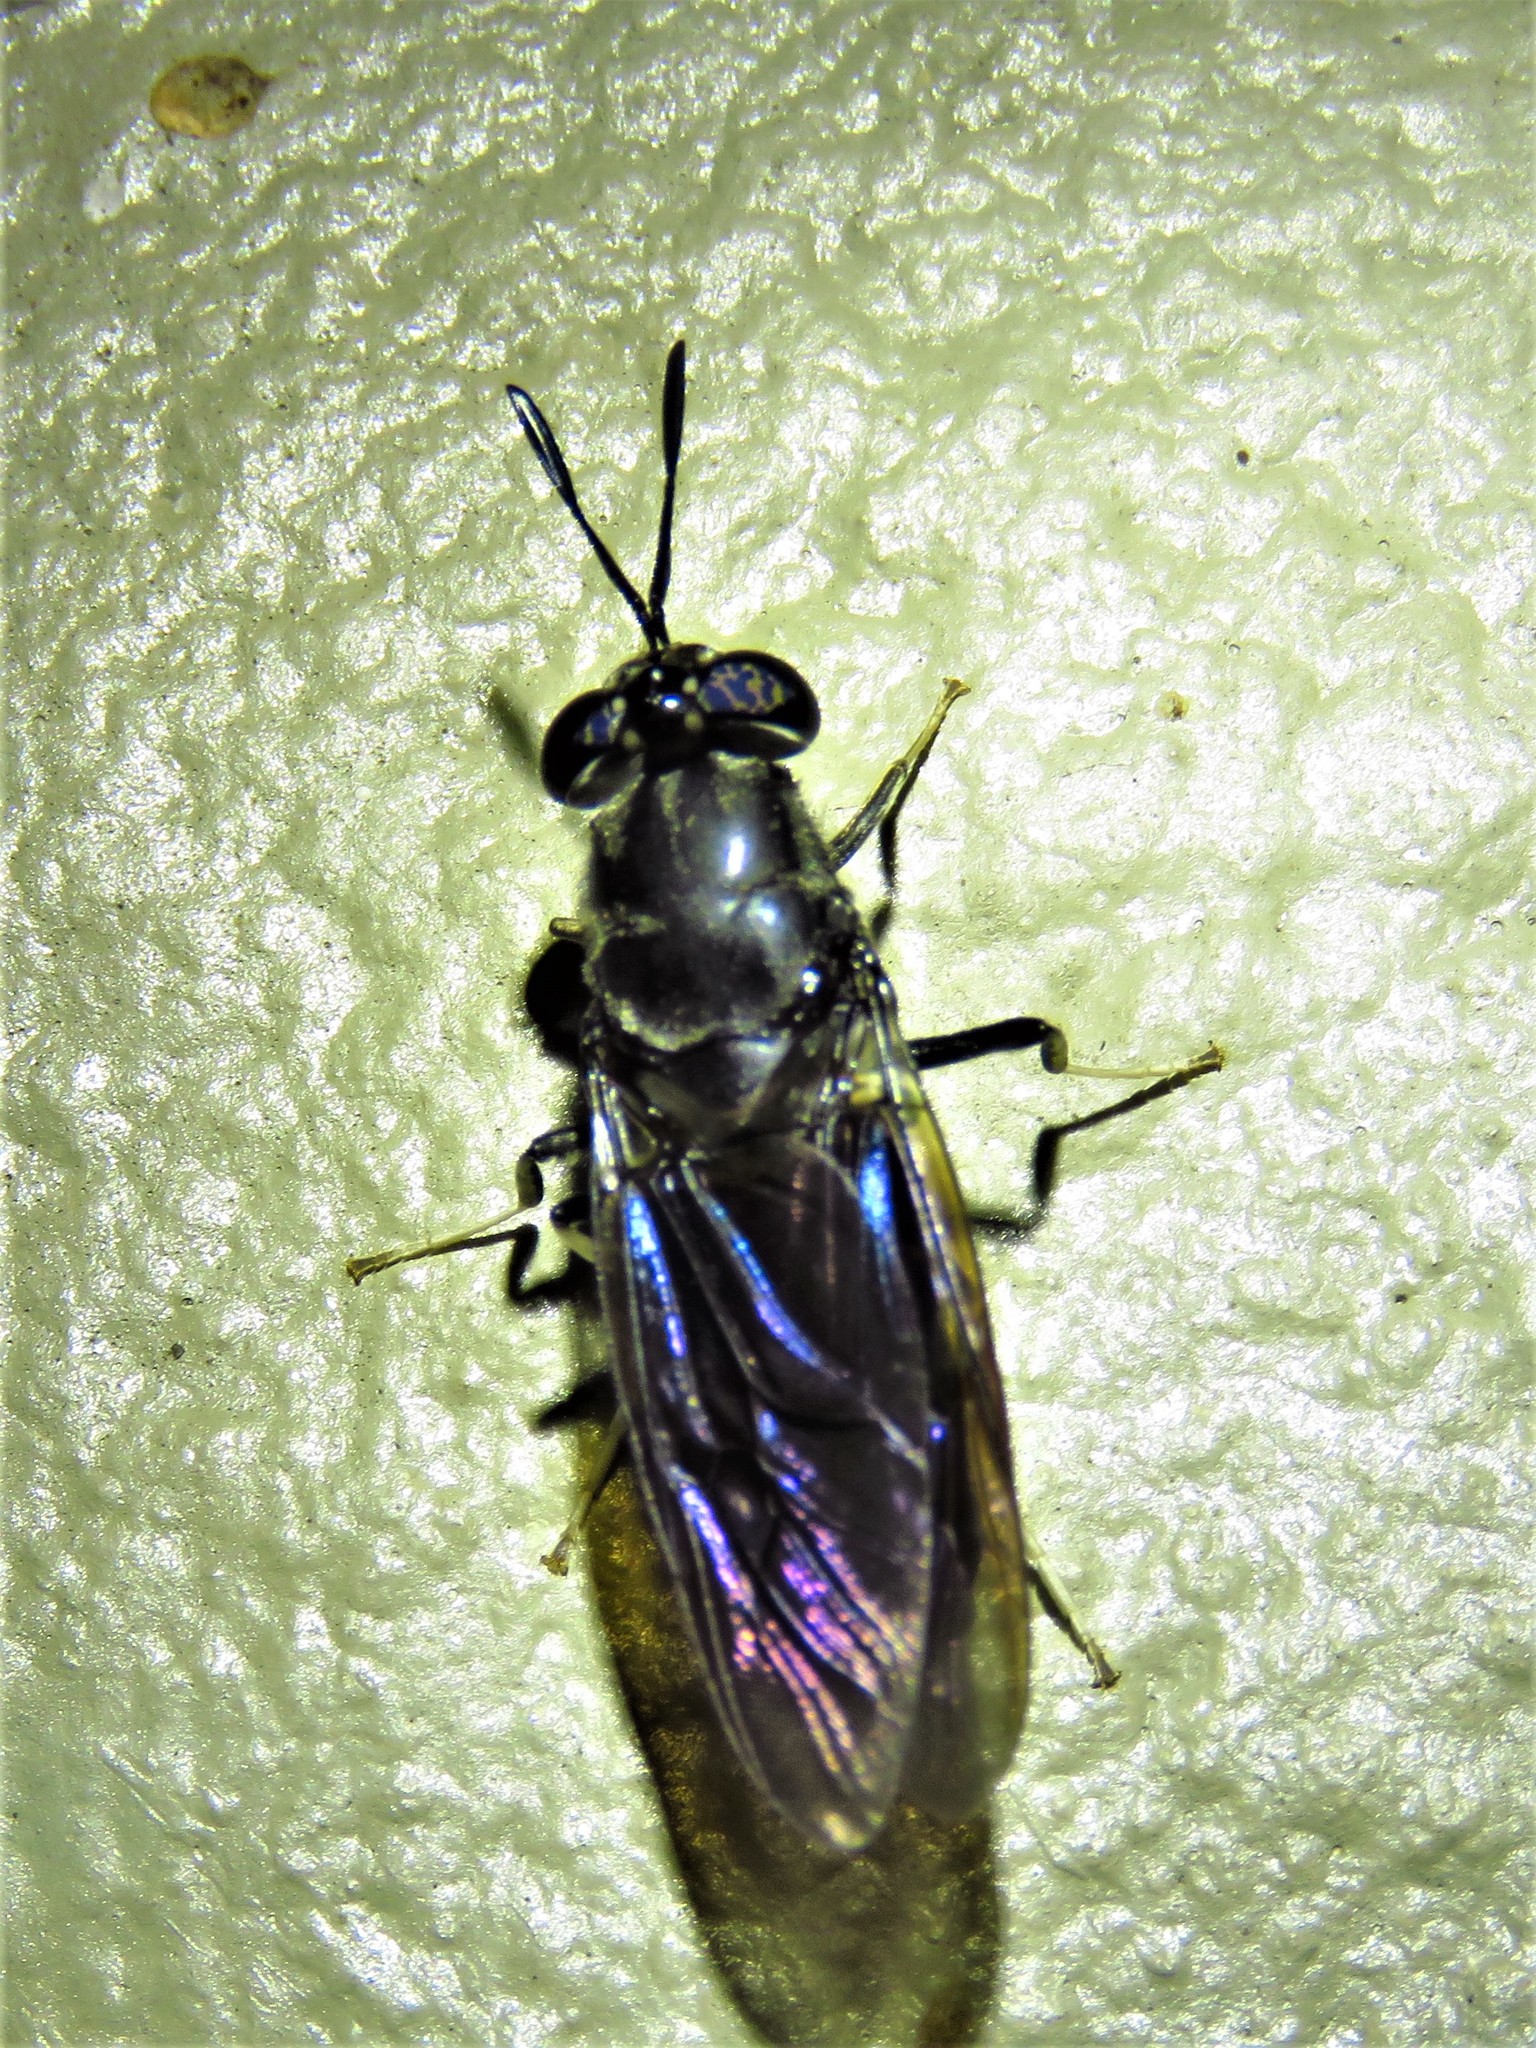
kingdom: Animalia
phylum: Arthropoda
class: Insecta
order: Diptera
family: Stratiomyidae
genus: Hermetia
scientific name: Hermetia illucens
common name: Black soldier fly
